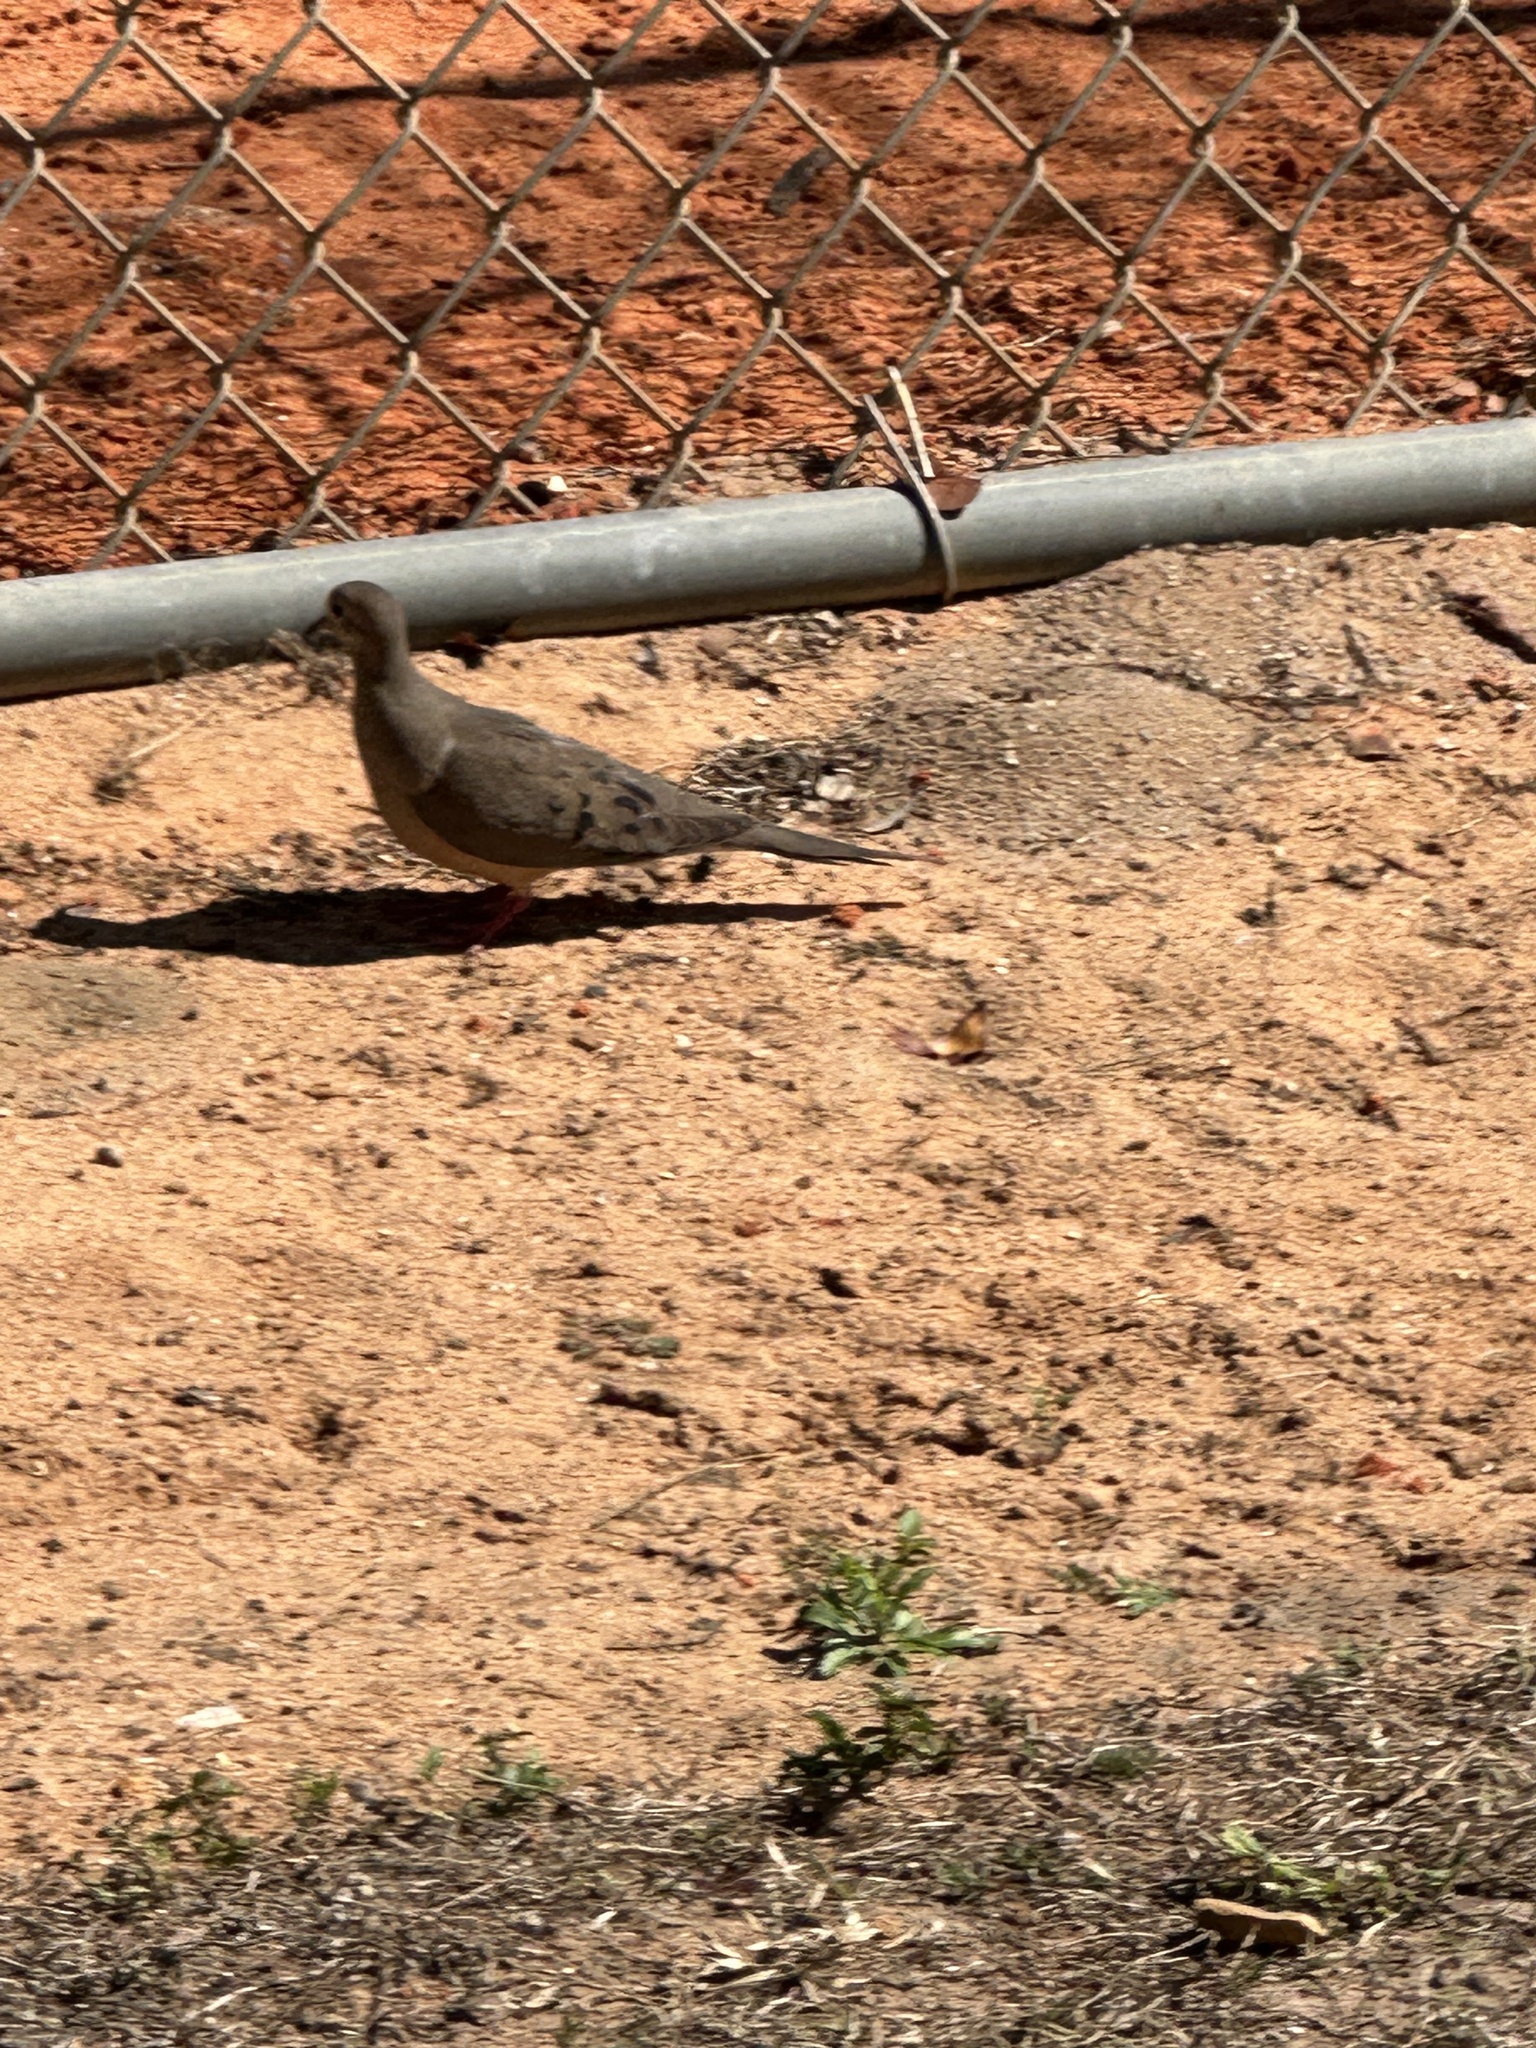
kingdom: Animalia
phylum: Chordata
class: Aves
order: Columbiformes
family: Columbidae
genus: Zenaida
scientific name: Zenaida macroura
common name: Mourning dove
